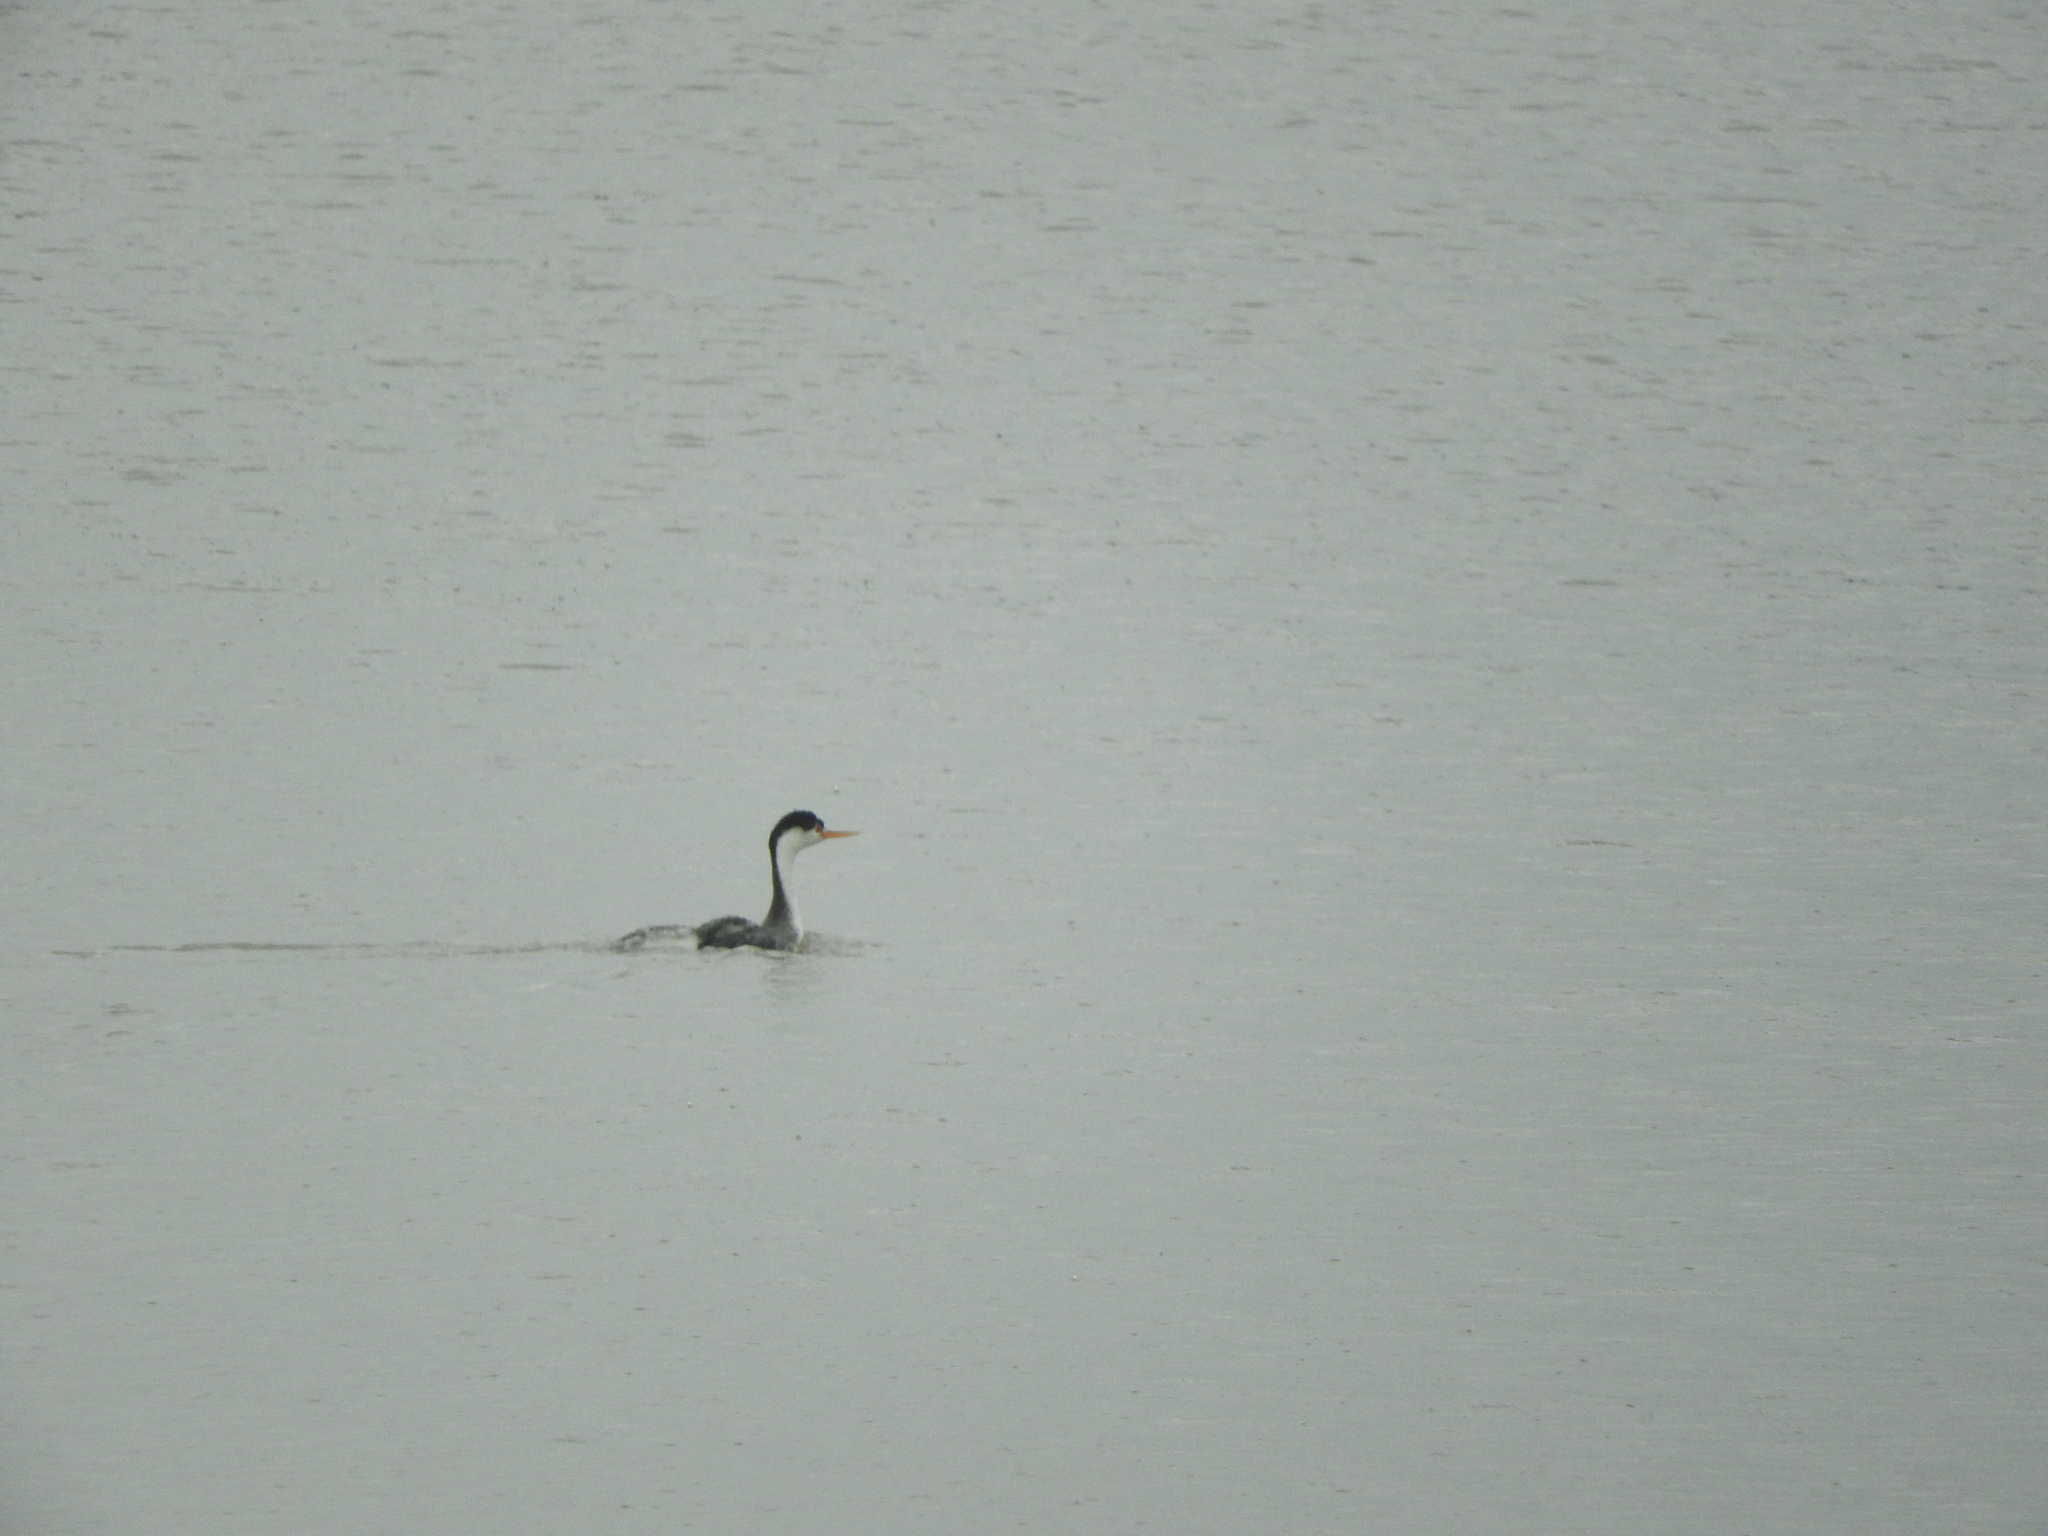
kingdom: Animalia
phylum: Chordata
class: Aves
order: Podicipediformes
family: Podicipedidae
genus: Aechmophorus
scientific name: Aechmophorus clarkii
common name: Clark's grebe
